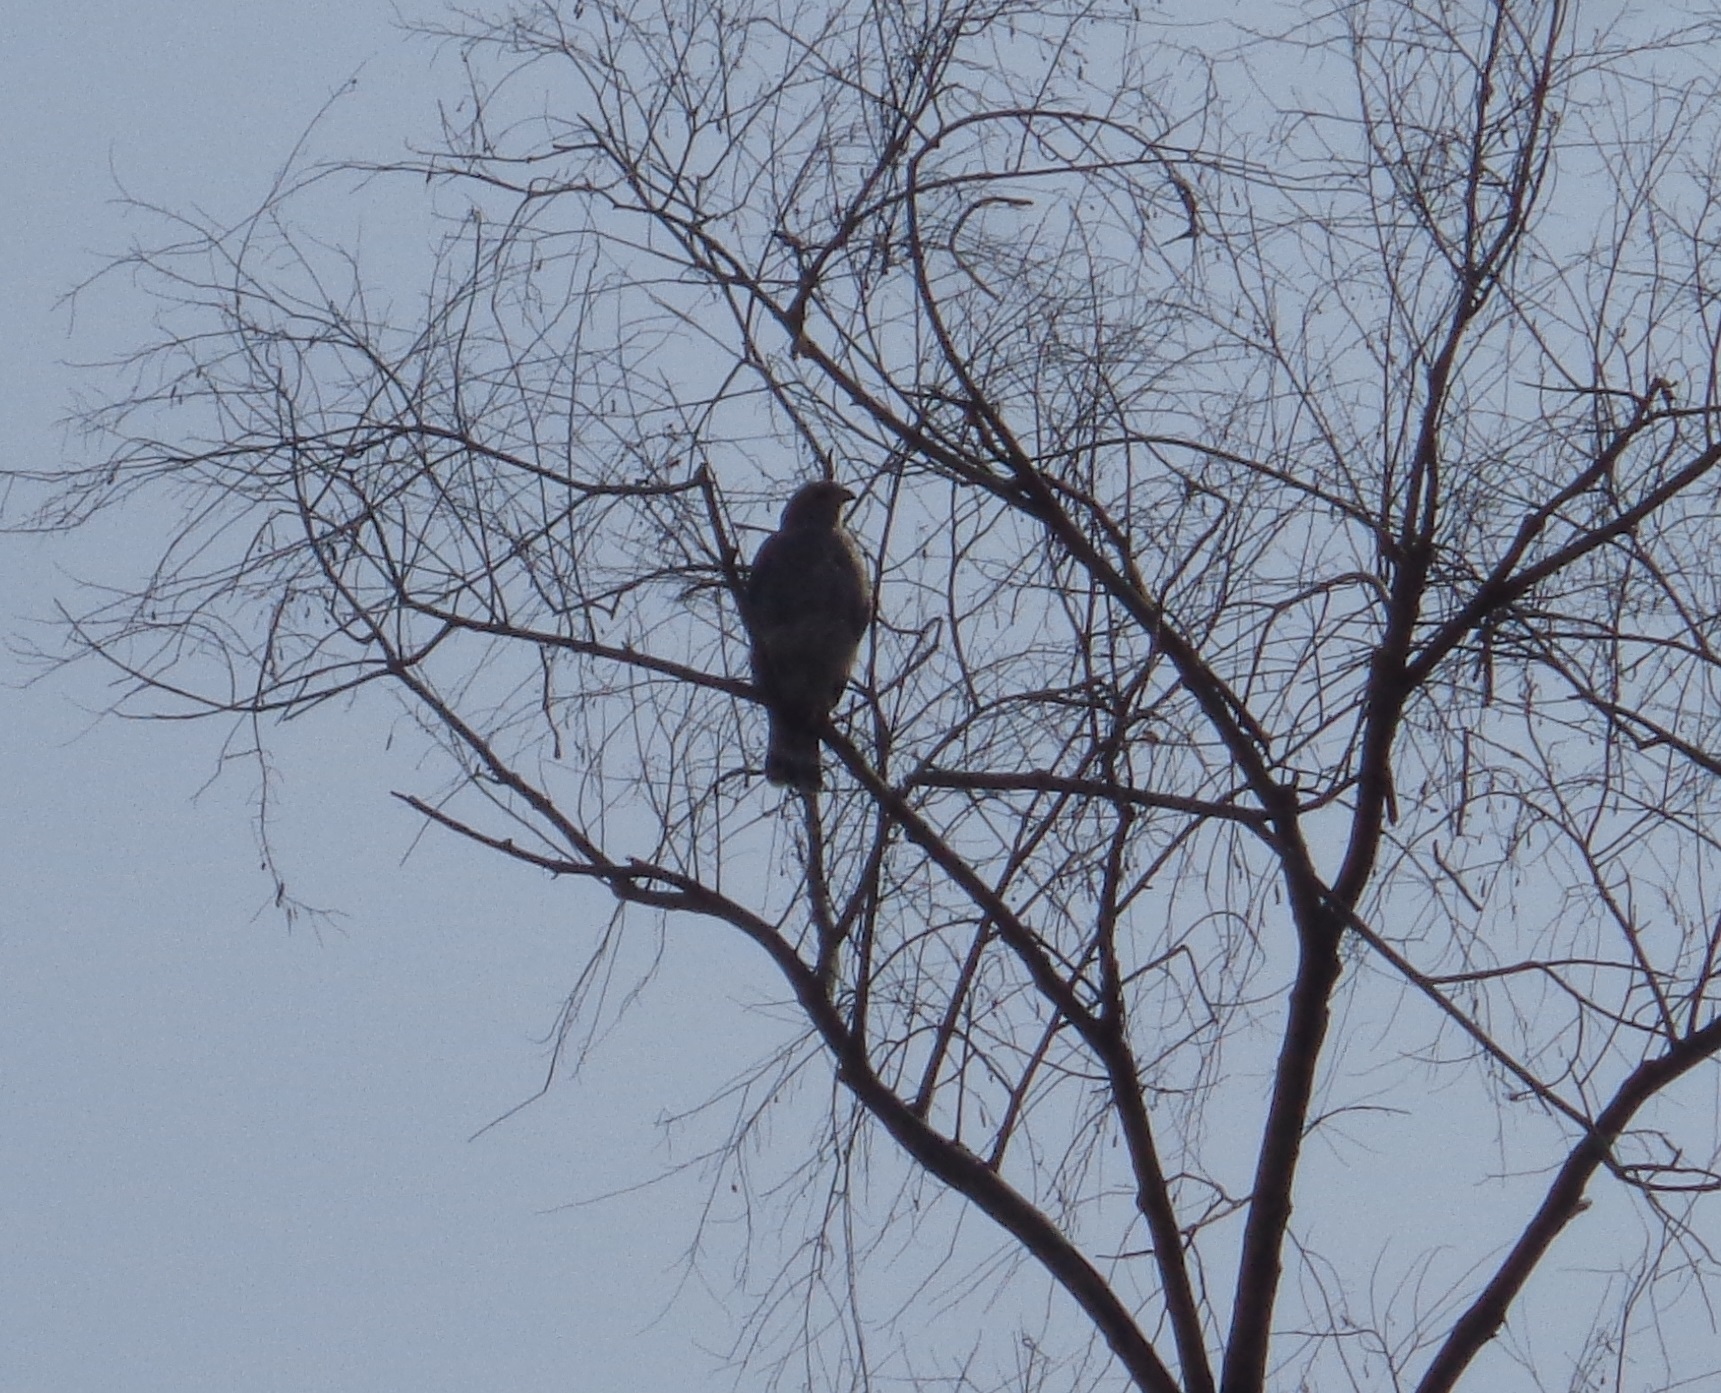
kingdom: Animalia
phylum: Chordata
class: Aves
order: Accipitriformes
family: Accipitridae
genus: Buteo
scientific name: Buteo nitidus
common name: Grey-lined hawk
